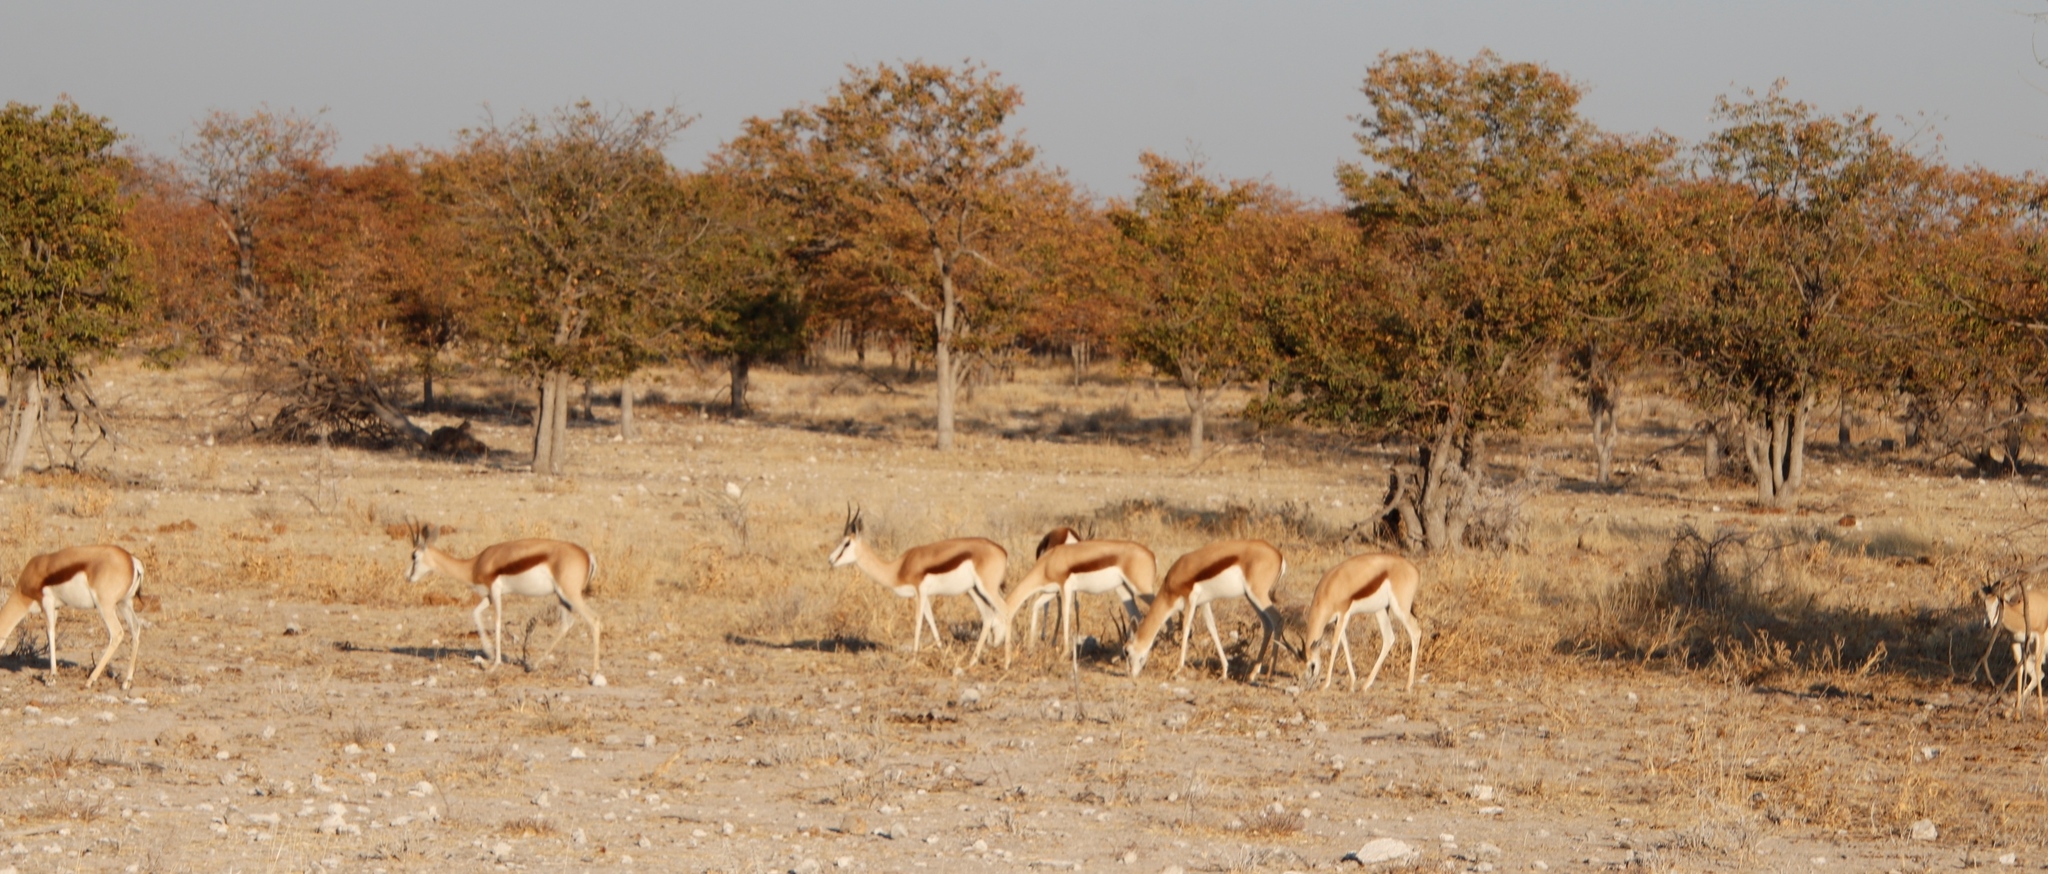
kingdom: Plantae
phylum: Tracheophyta
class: Magnoliopsida
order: Fabales
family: Fabaceae
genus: Colophospermum
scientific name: Colophospermum mopane
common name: Mopane
